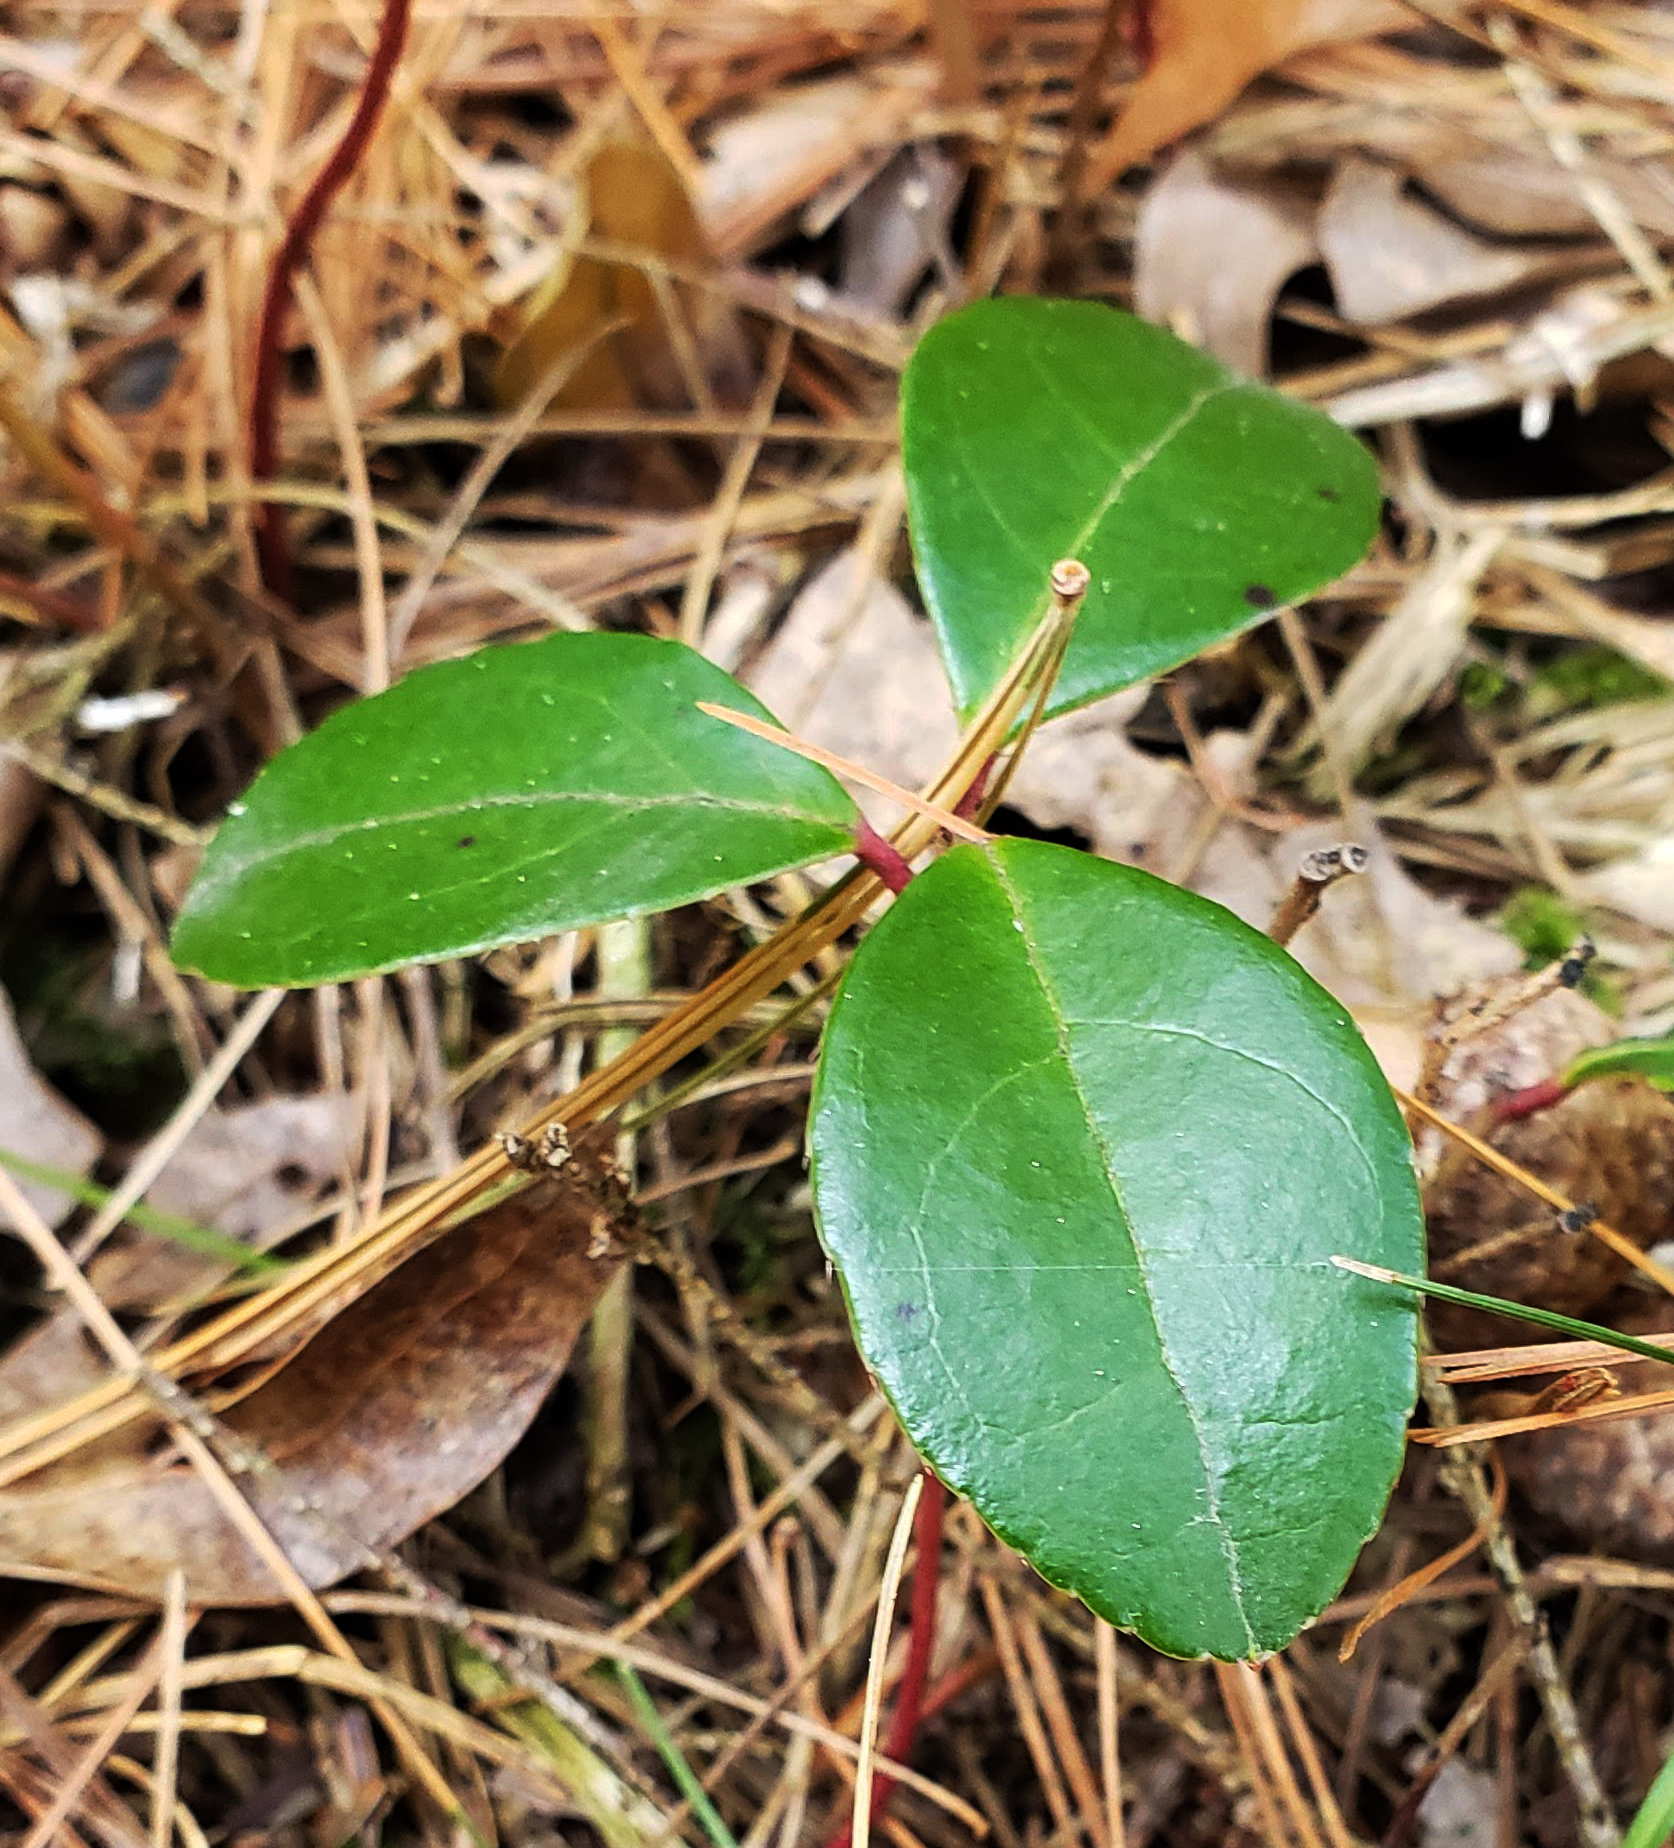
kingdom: Plantae
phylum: Tracheophyta
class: Magnoliopsida
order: Ericales
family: Ericaceae
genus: Gaultheria
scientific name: Gaultheria procumbens
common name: Checkerberry
